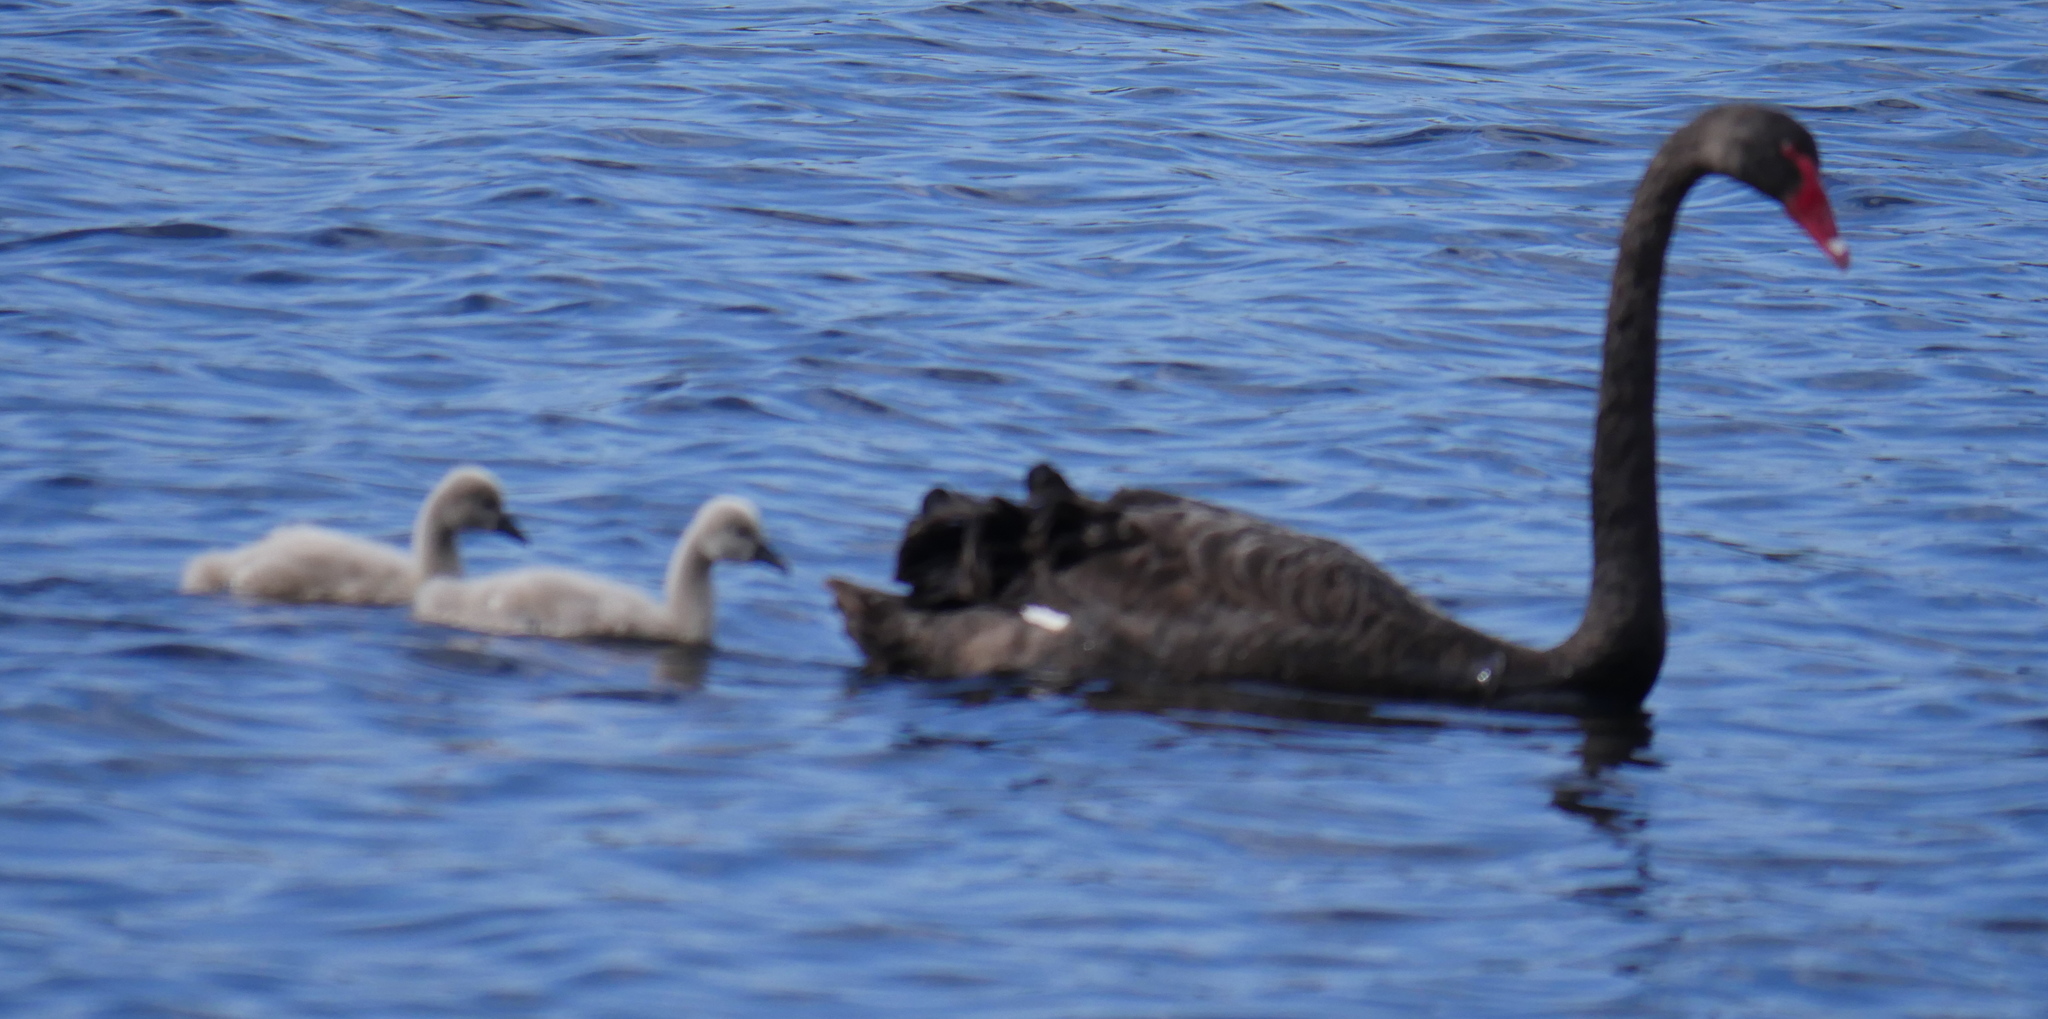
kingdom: Animalia
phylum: Chordata
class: Aves
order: Anseriformes
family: Anatidae
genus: Cygnus
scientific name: Cygnus atratus
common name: Black swan
